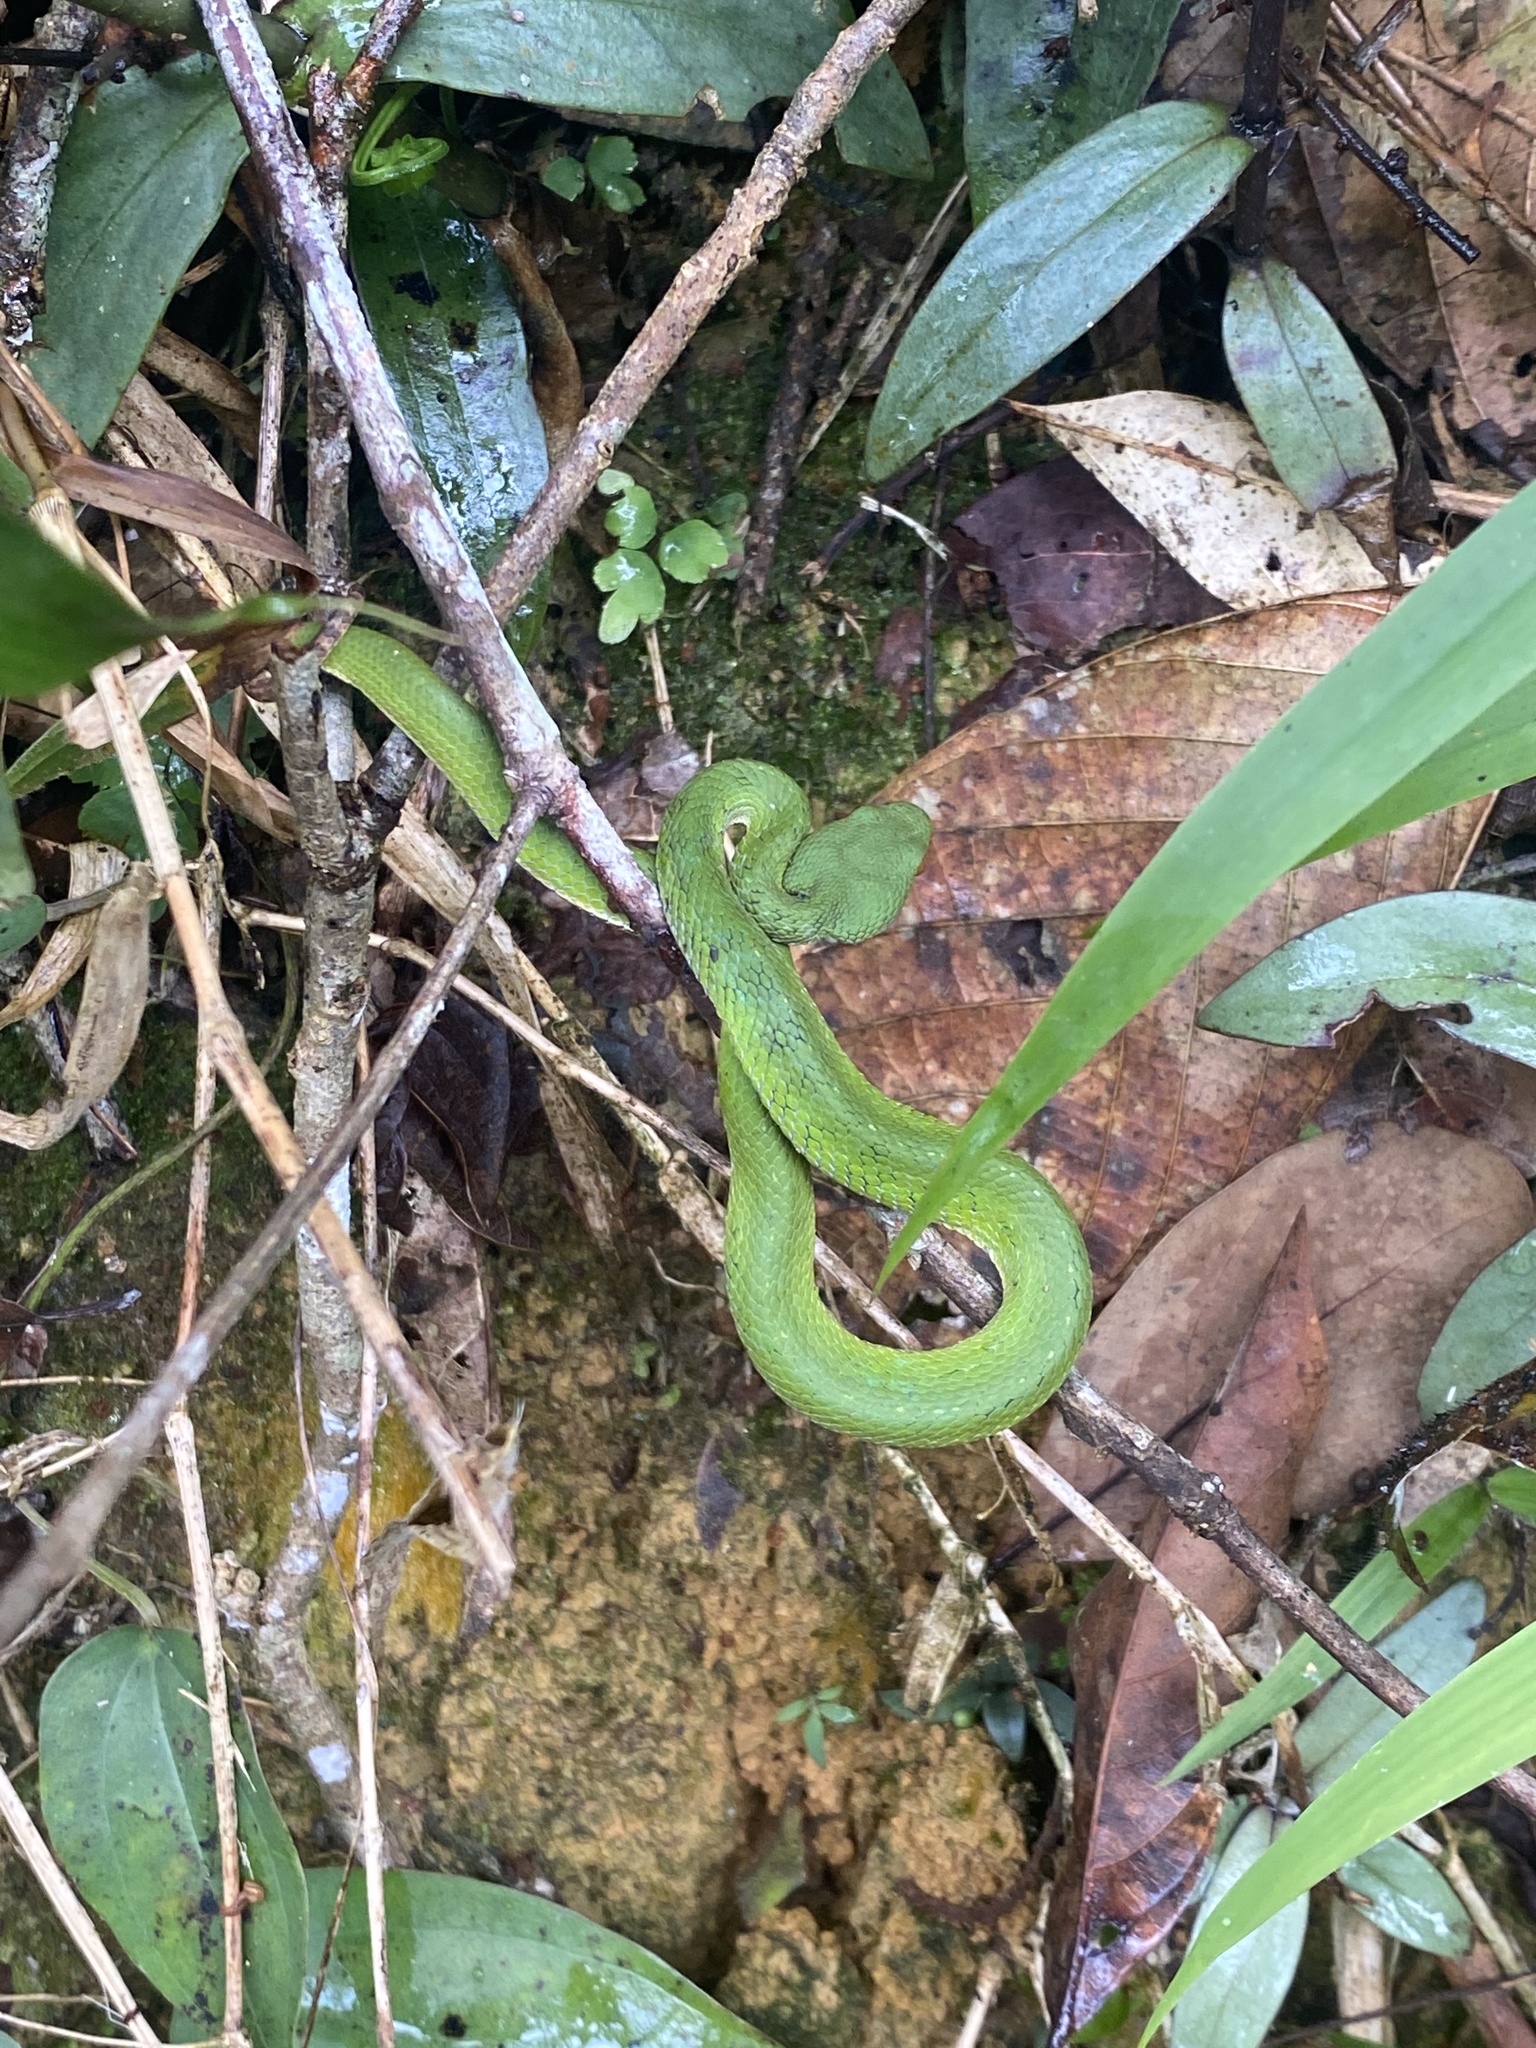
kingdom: Animalia
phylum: Chordata
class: Squamata
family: Viperidae
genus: Craspedocephalus
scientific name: Craspedocephalus rubeus
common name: Ruby-eyed green pitviper
